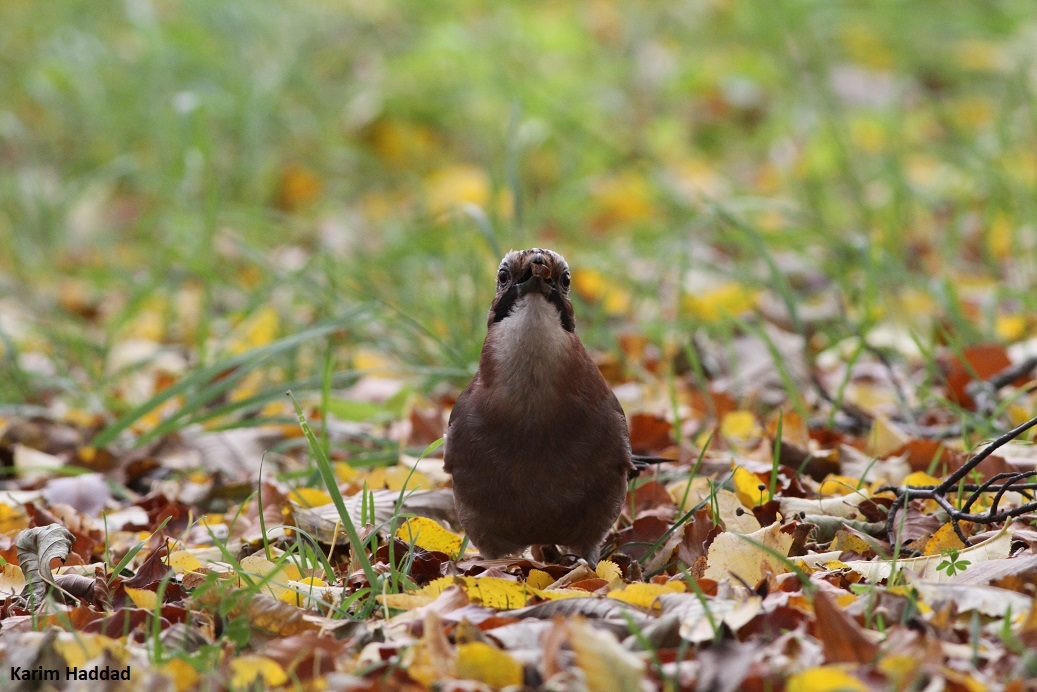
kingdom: Animalia
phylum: Chordata
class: Aves
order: Passeriformes
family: Corvidae
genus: Garrulus
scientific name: Garrulus glandarius
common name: Eurasian jay
